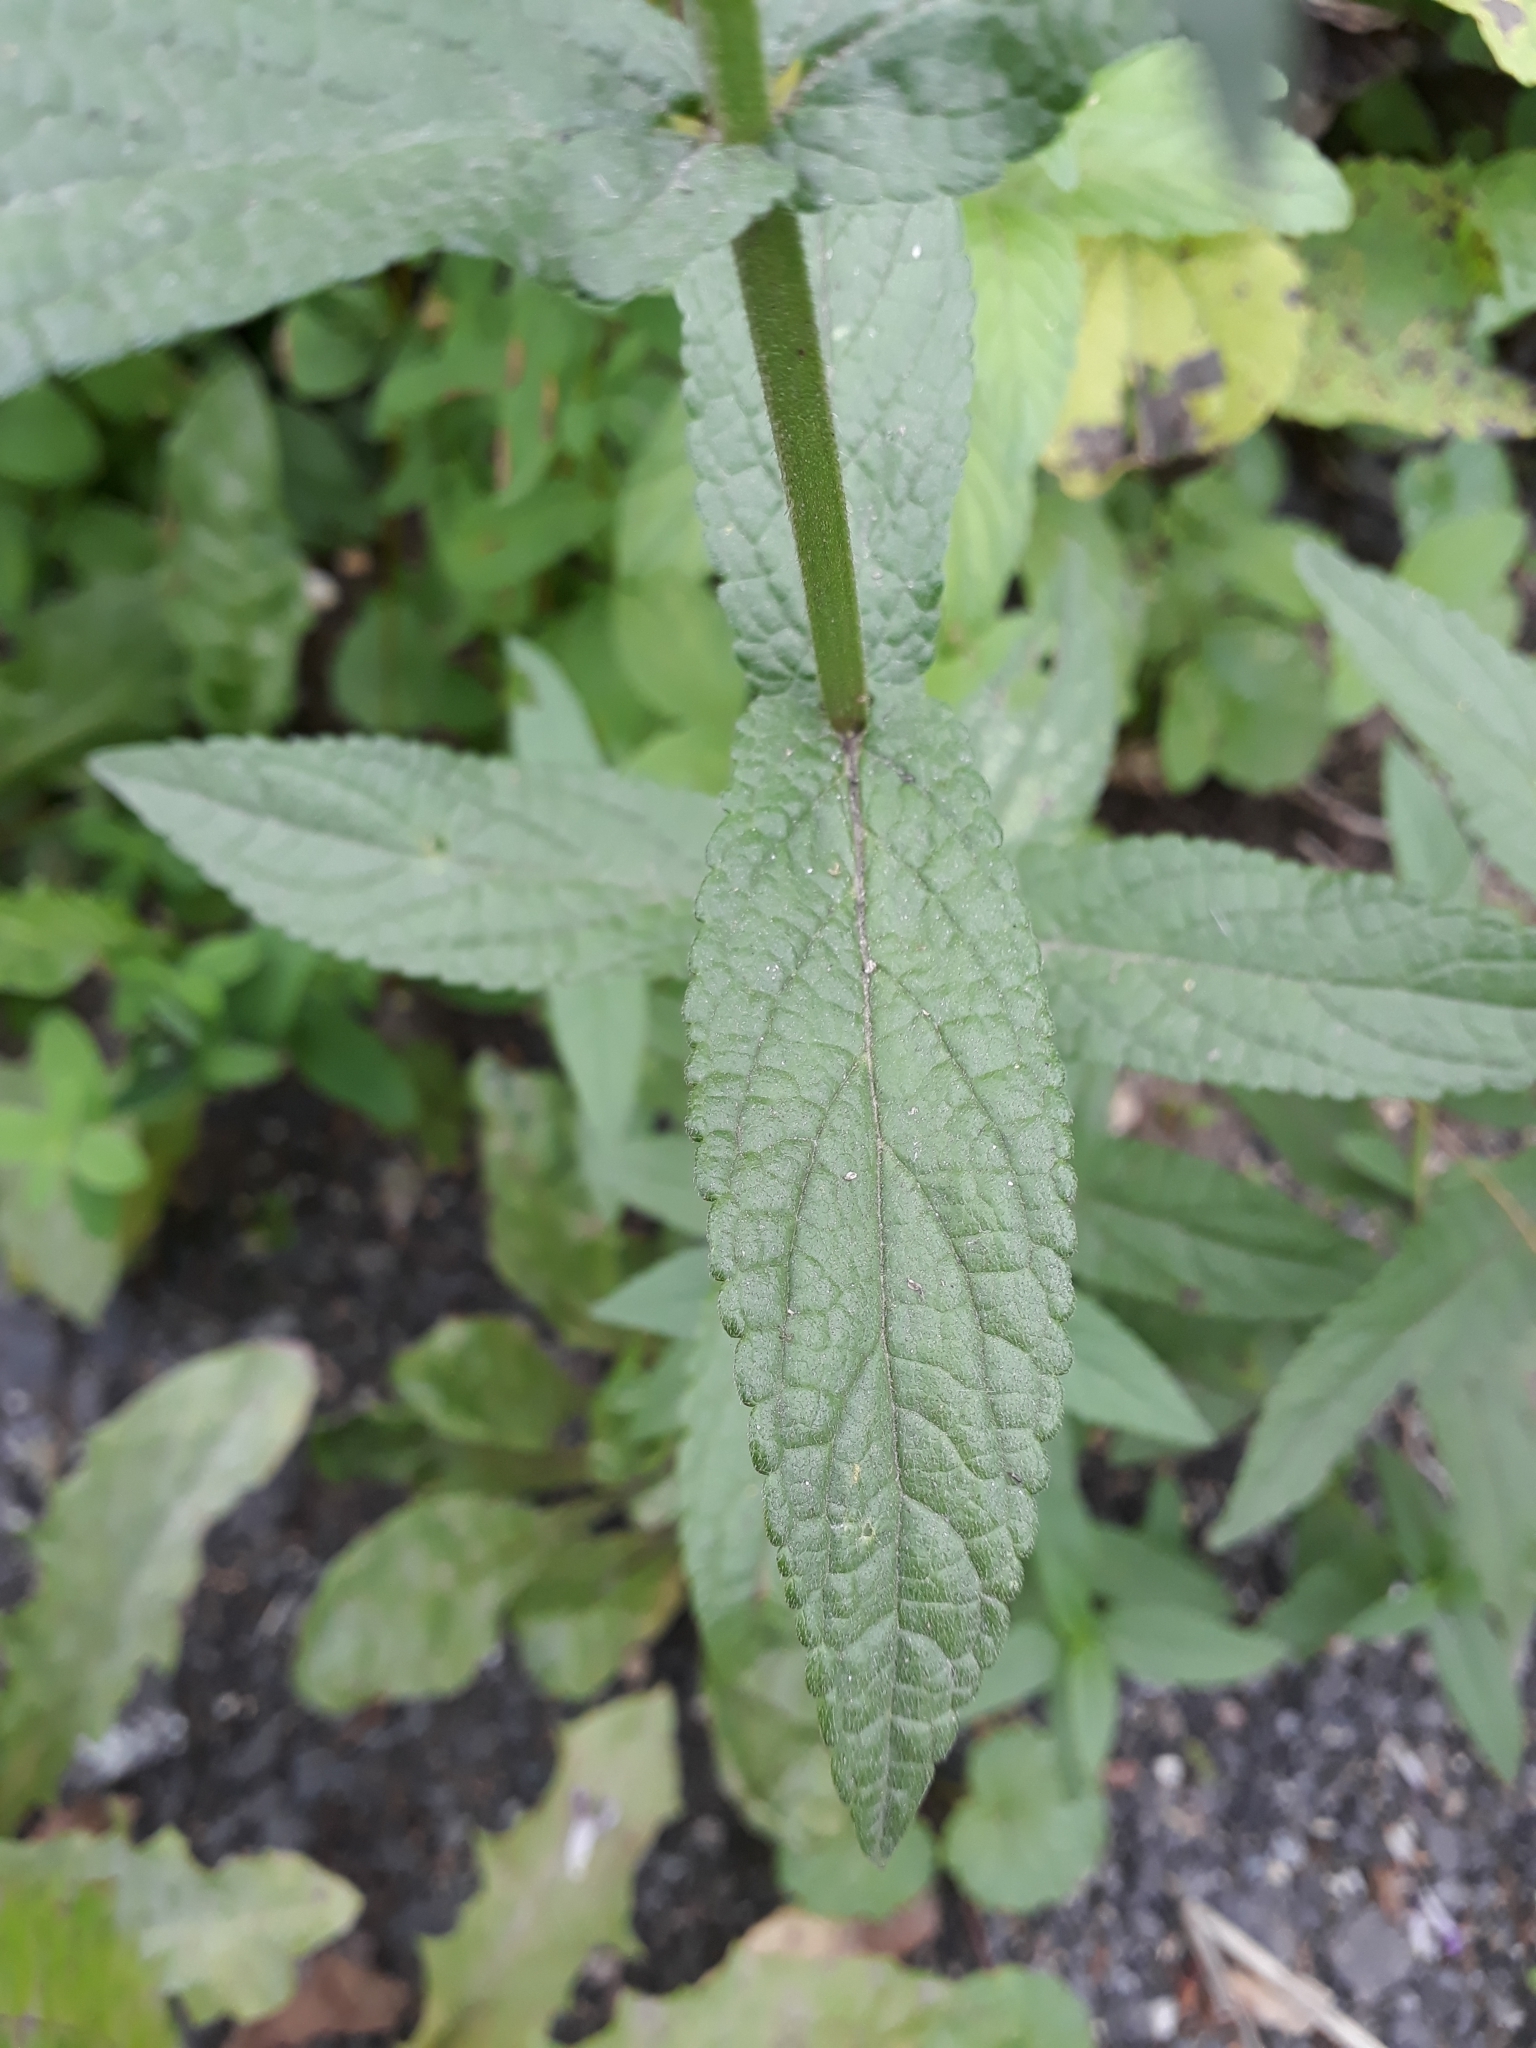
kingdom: Plantae
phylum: Tracheophyta
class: Magnoliopsida
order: Lamiales
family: Lamiaceae
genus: Stachys
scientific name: Stachys palustris
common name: Marsh woundwort
